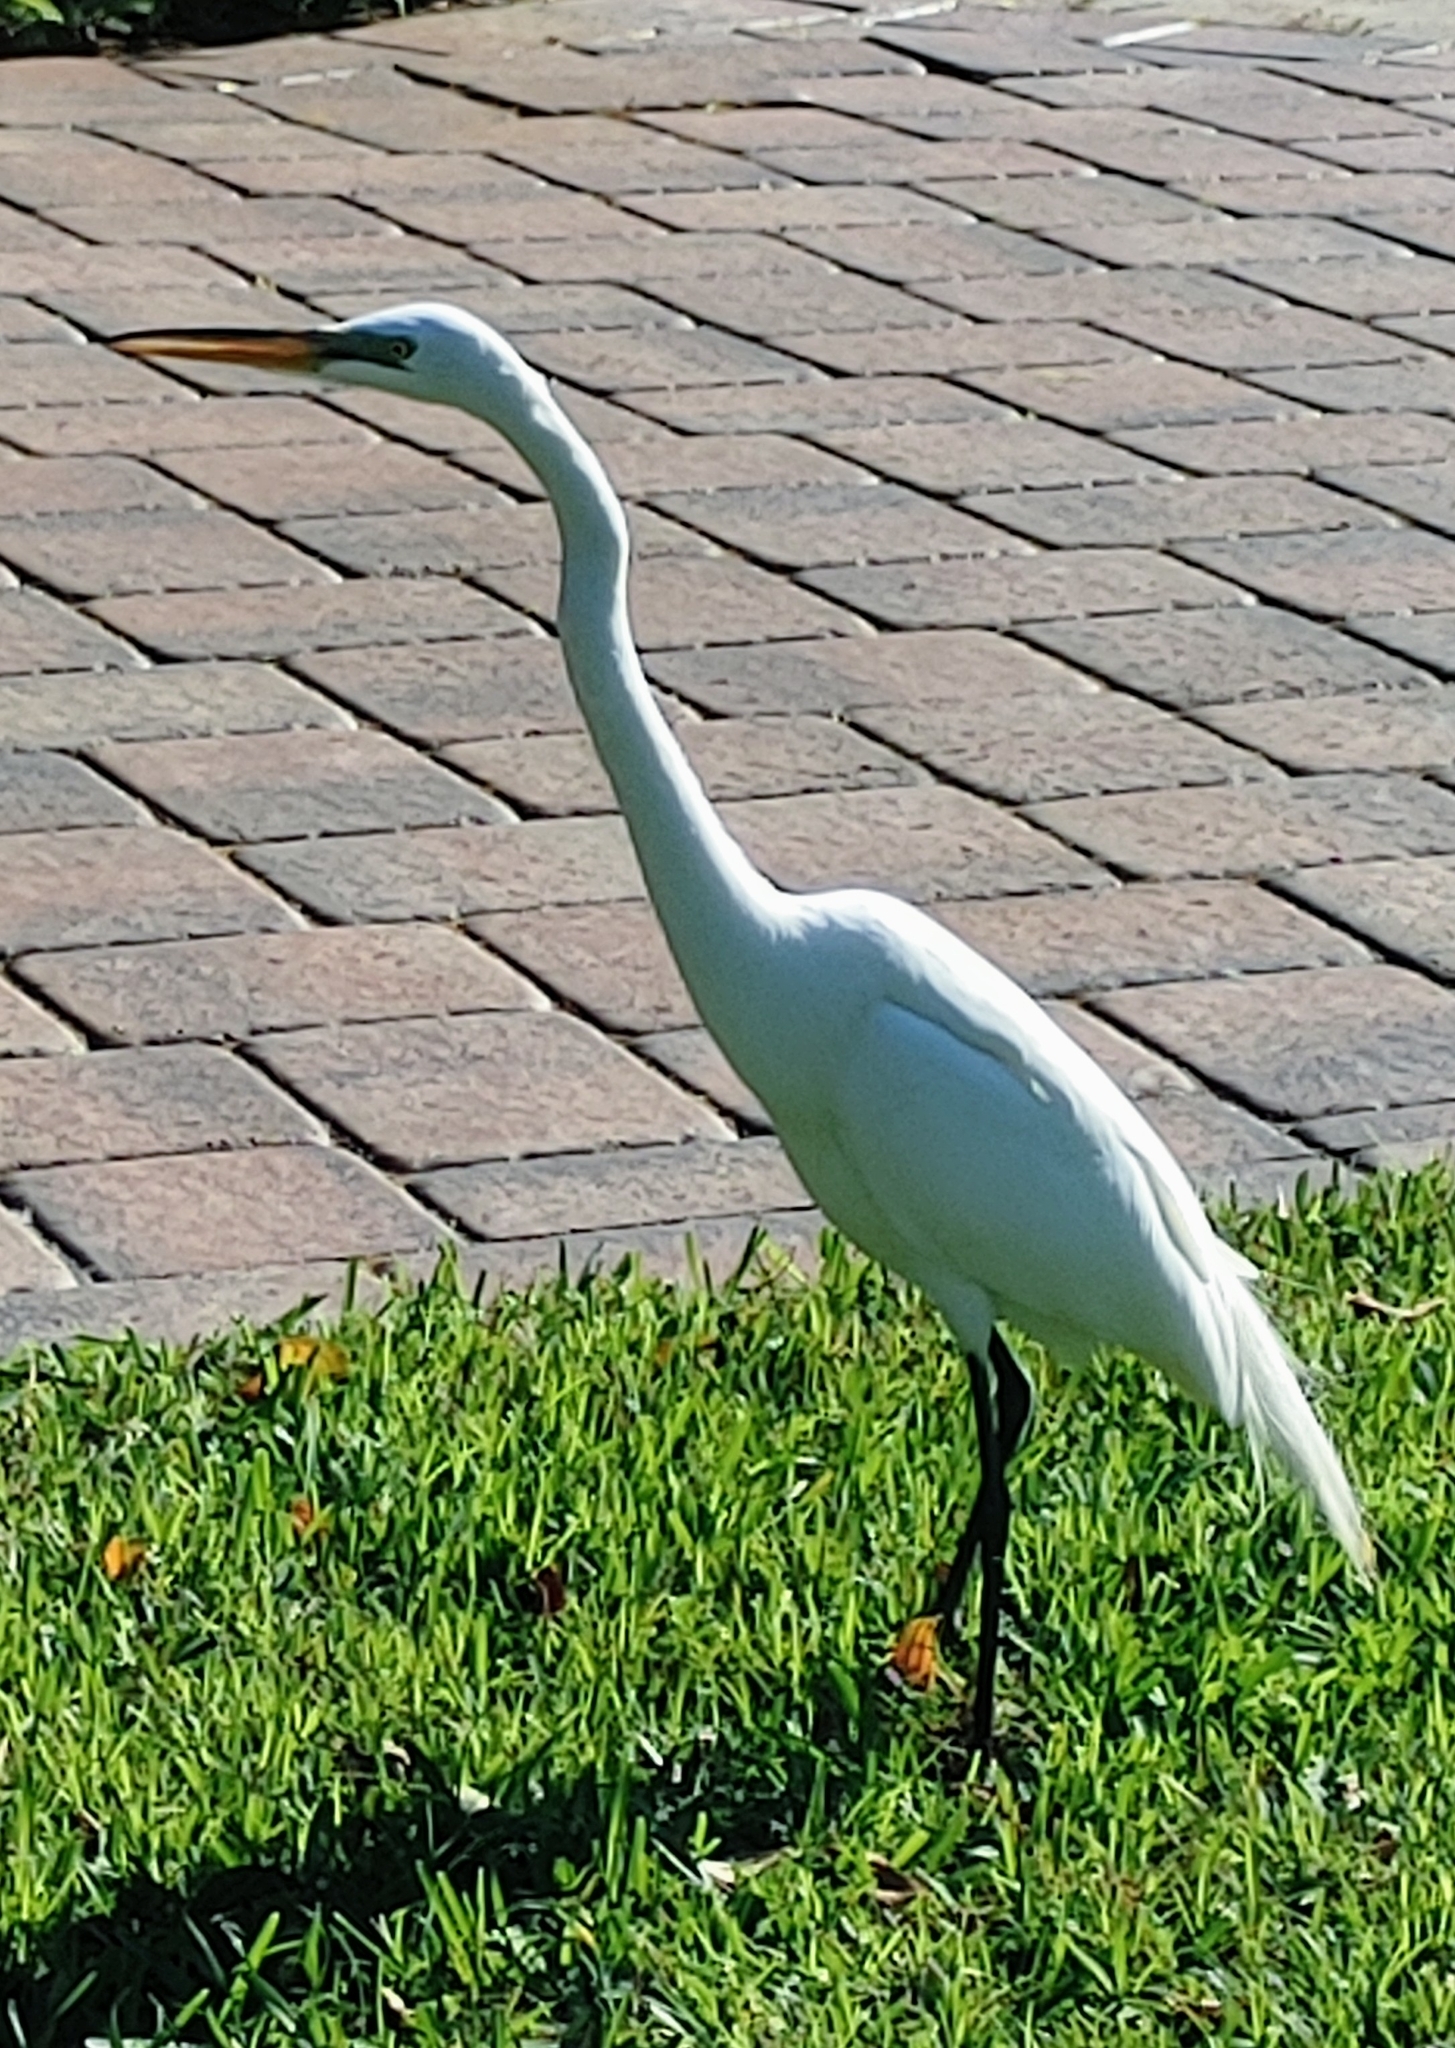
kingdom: Animalia
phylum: Chordata
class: Aves
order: Pelecaniformes
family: Ardeidae
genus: Ardea
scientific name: Ardea alba
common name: Great egret
